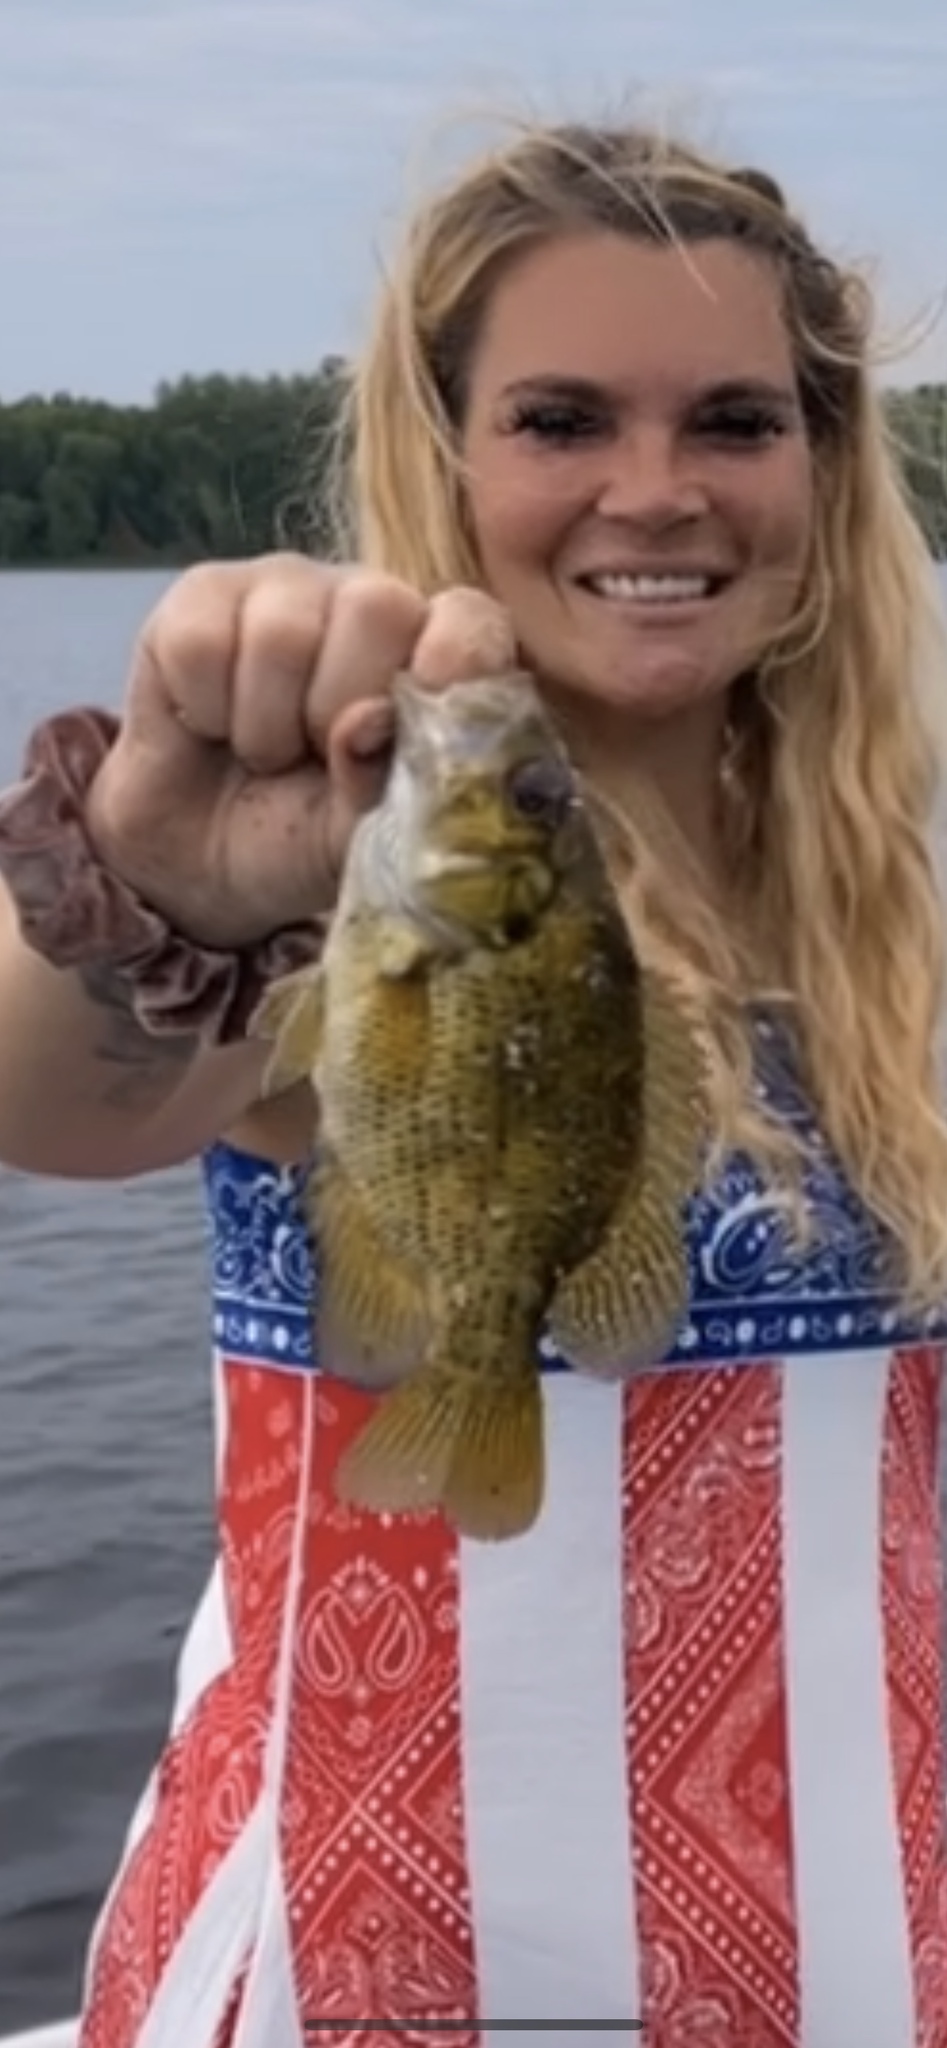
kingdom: Animalia
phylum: Chordata
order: Perciformes
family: Centrarchidae
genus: Ambloplites
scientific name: Ambloplites rupestris
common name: Rock bass
